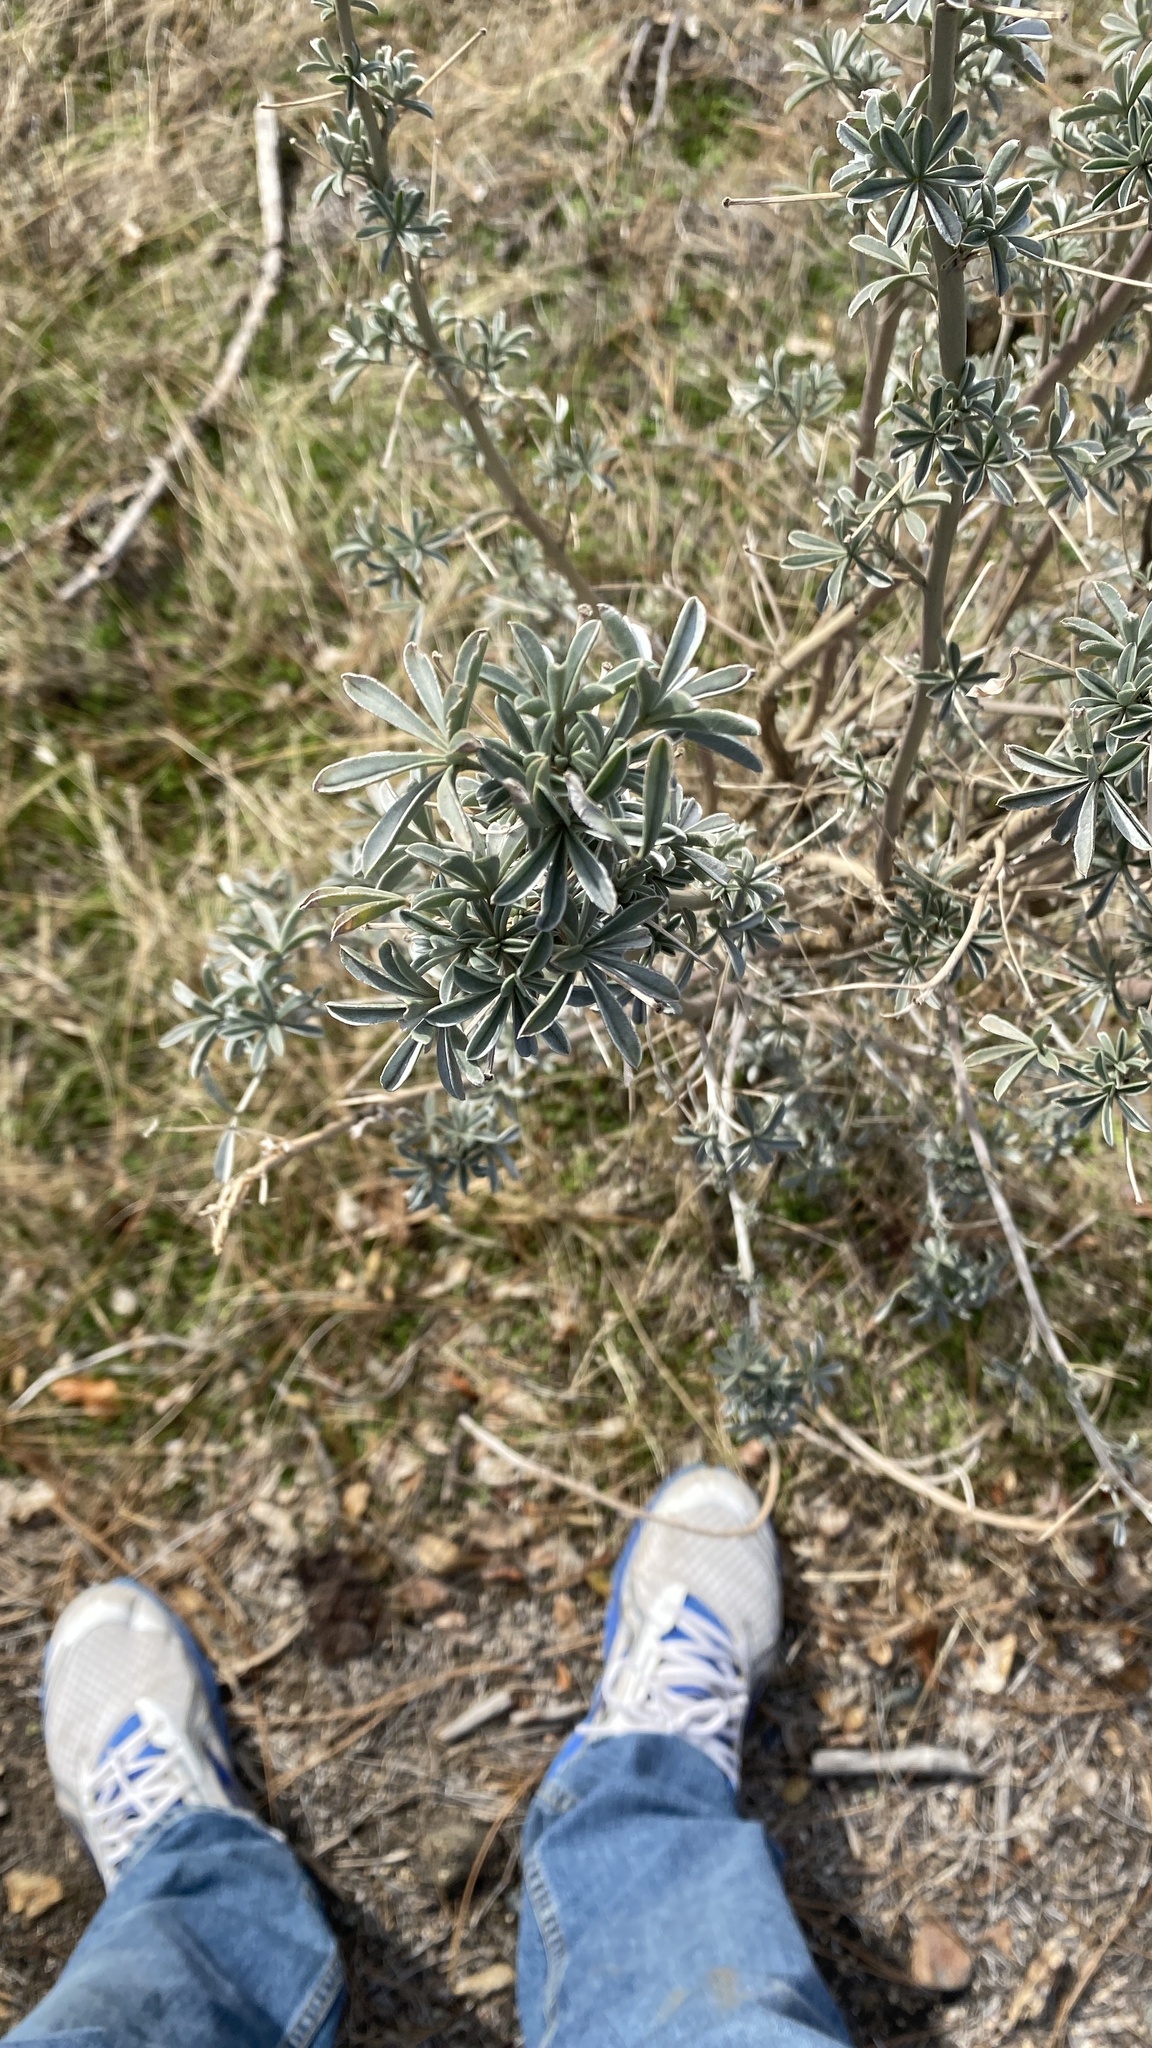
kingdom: Plantae
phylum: Tracheophyta
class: Magnoliopsida
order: Fabales
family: Fabaceae
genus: Lupinus
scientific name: Lupinus albifrons
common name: Foothill lupine
